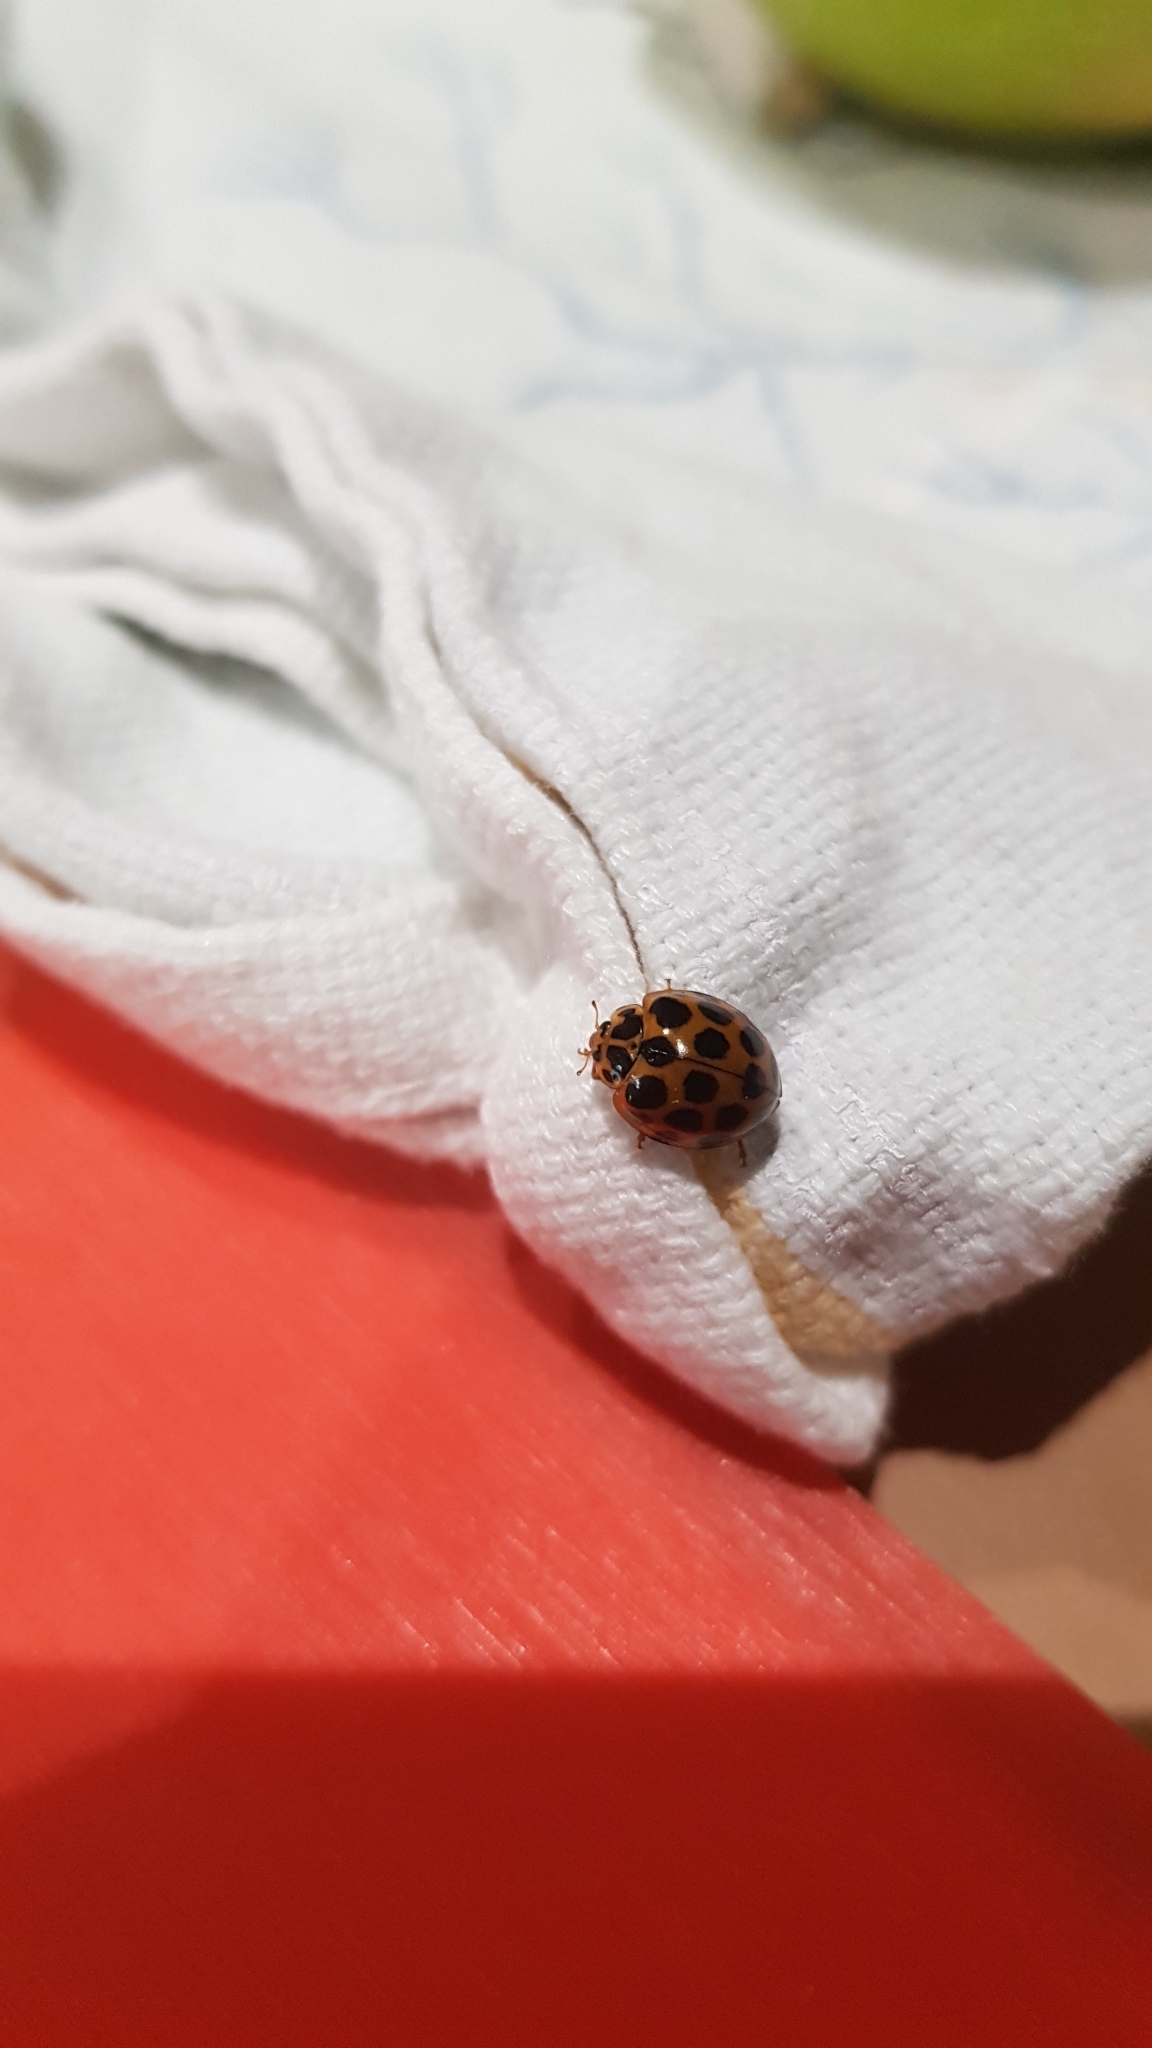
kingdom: Animalia
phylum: Arthropoda
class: Insecta
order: Coleoptera
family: Coccinellidae
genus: Harmonia
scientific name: Harmonia conformis
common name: Common spotted ladybird beetle
